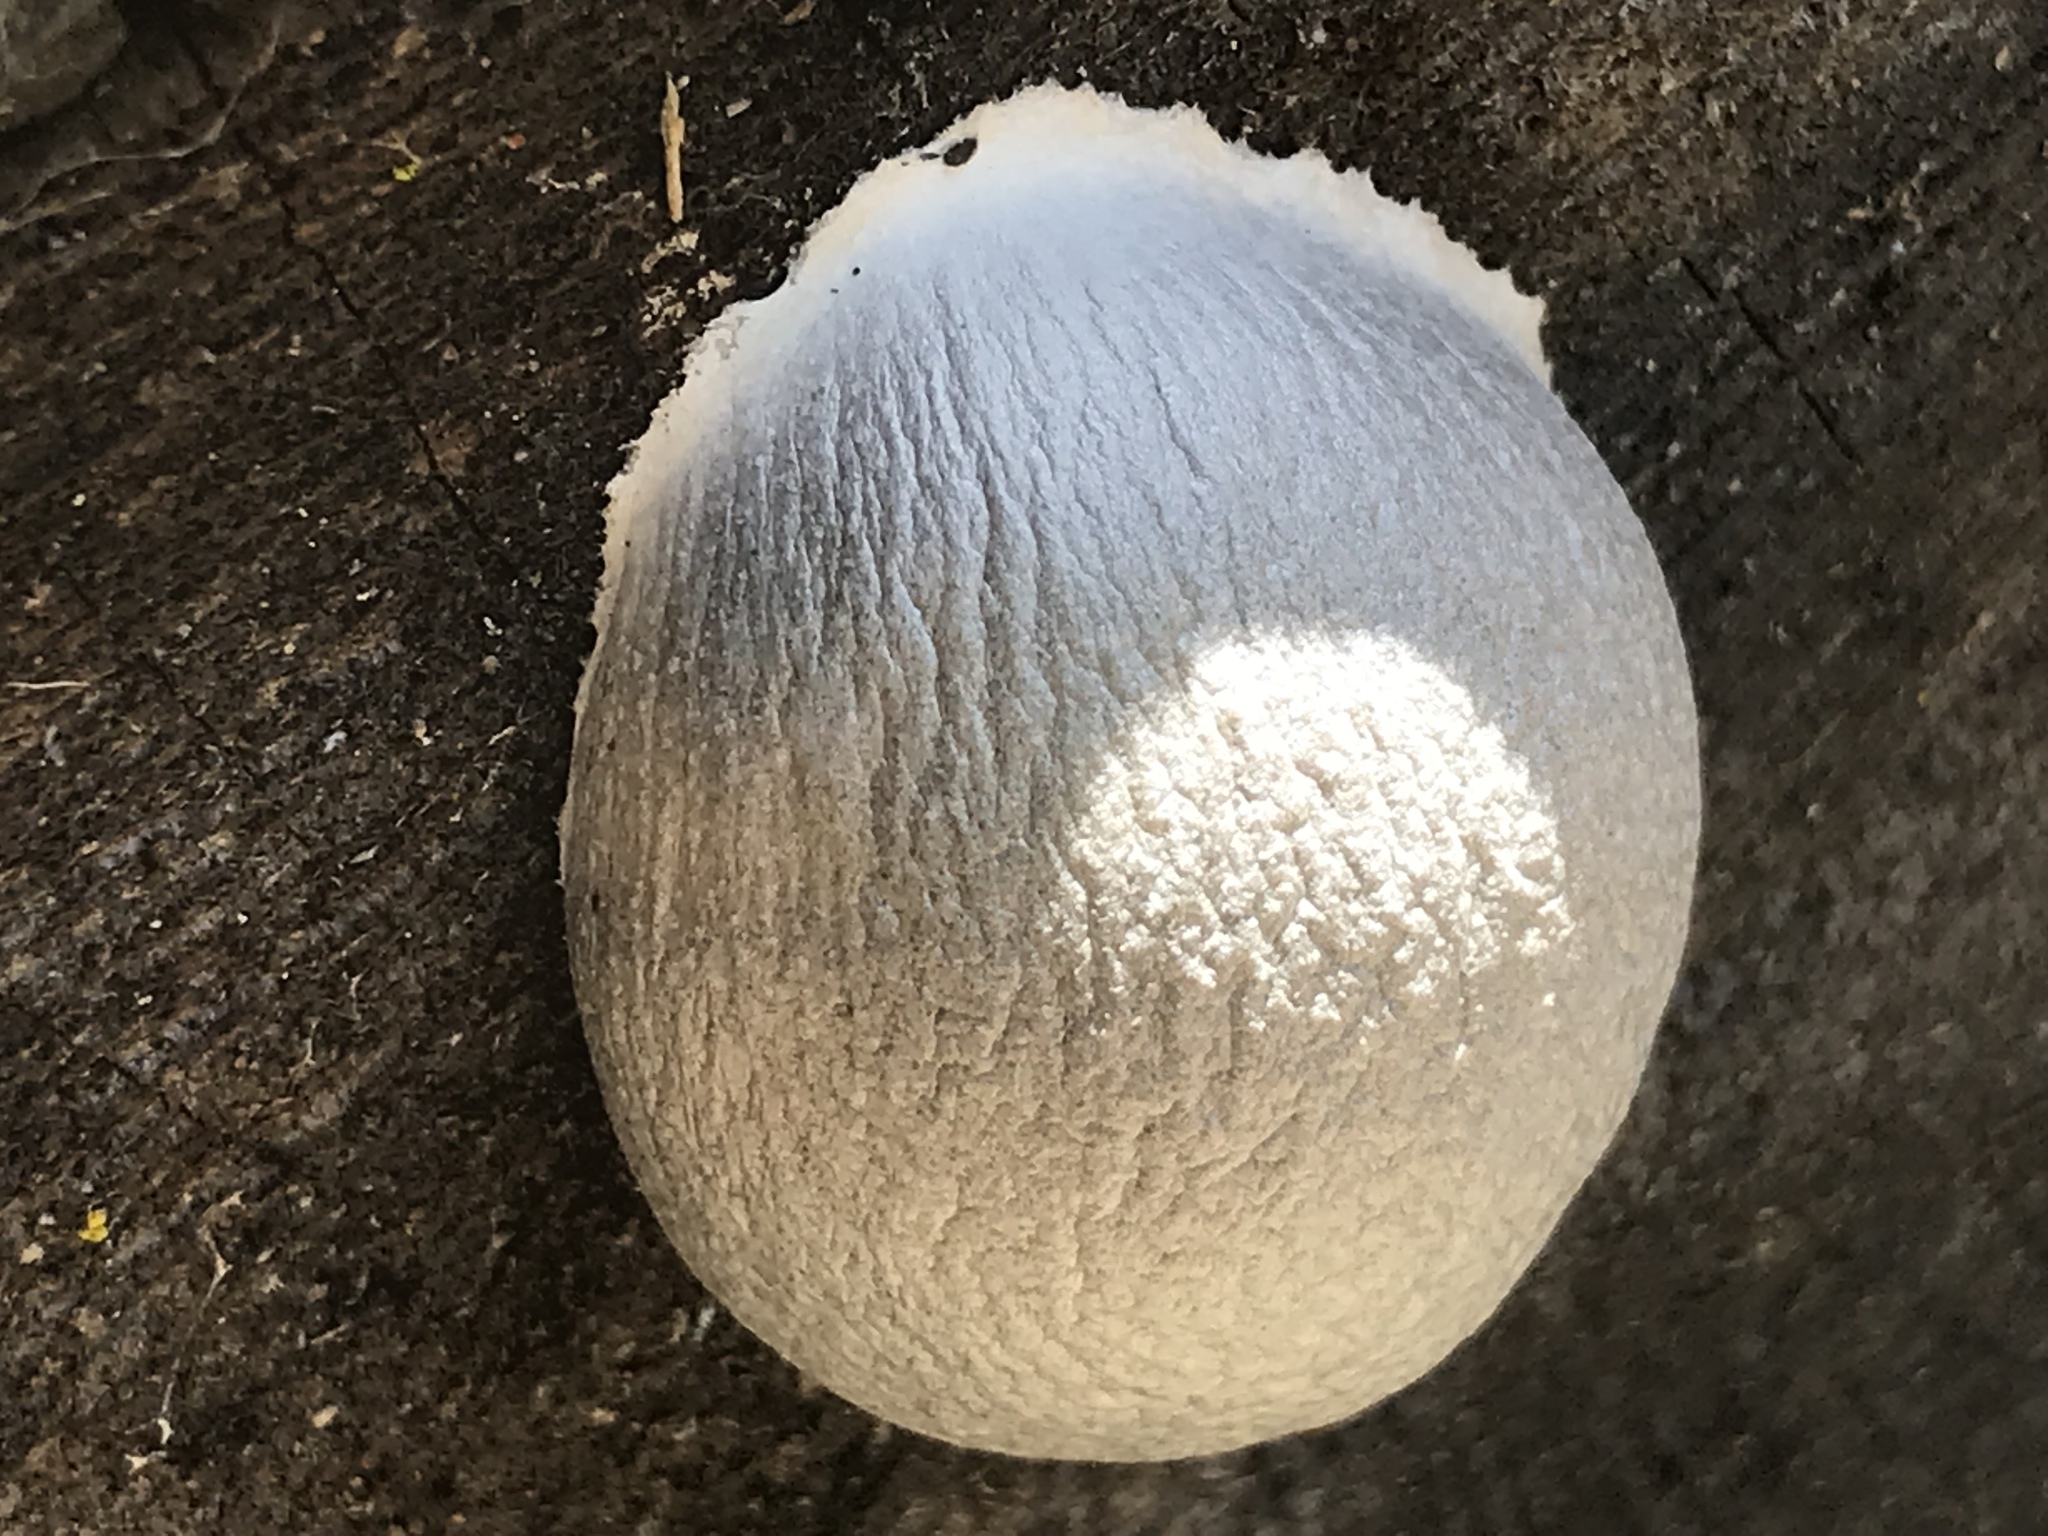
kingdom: Protozoa
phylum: Mycetozoa
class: Myxomycetes
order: Cribrariales
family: Tubiferaceae
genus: Reticularia
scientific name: Reticularia lycoperdon
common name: False puffball
